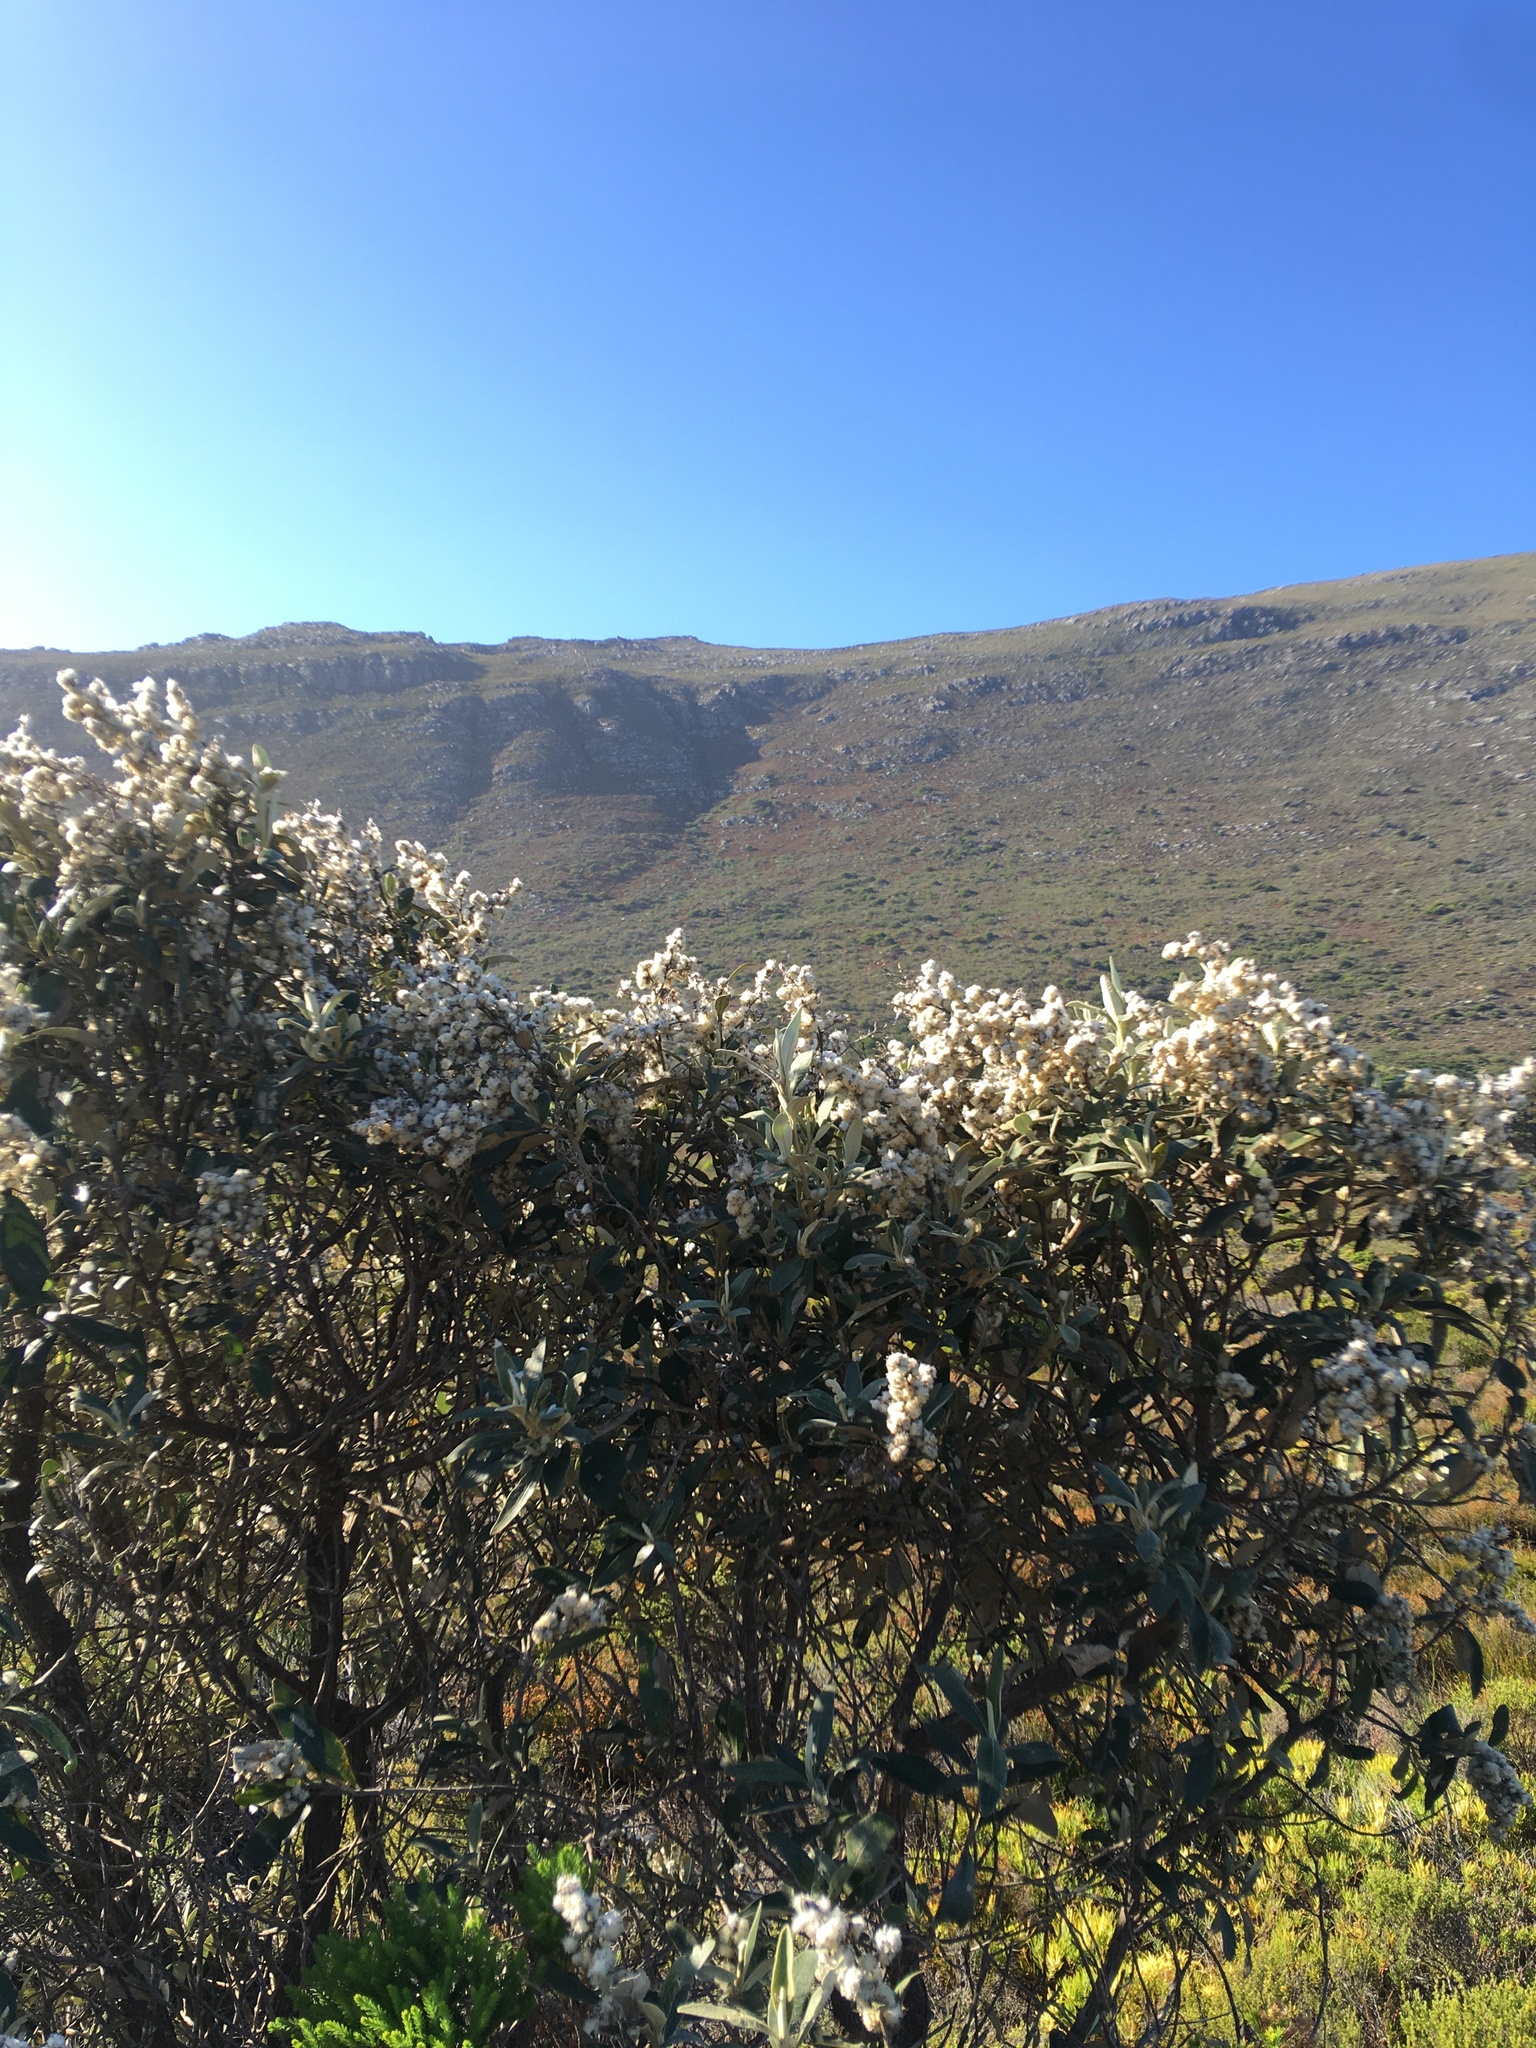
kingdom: Plantae
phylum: Tracheophyta
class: Magnoliopsida
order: Asterales
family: Asteraceae
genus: Tarchonanthus
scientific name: Tarchonanthus littoralis
